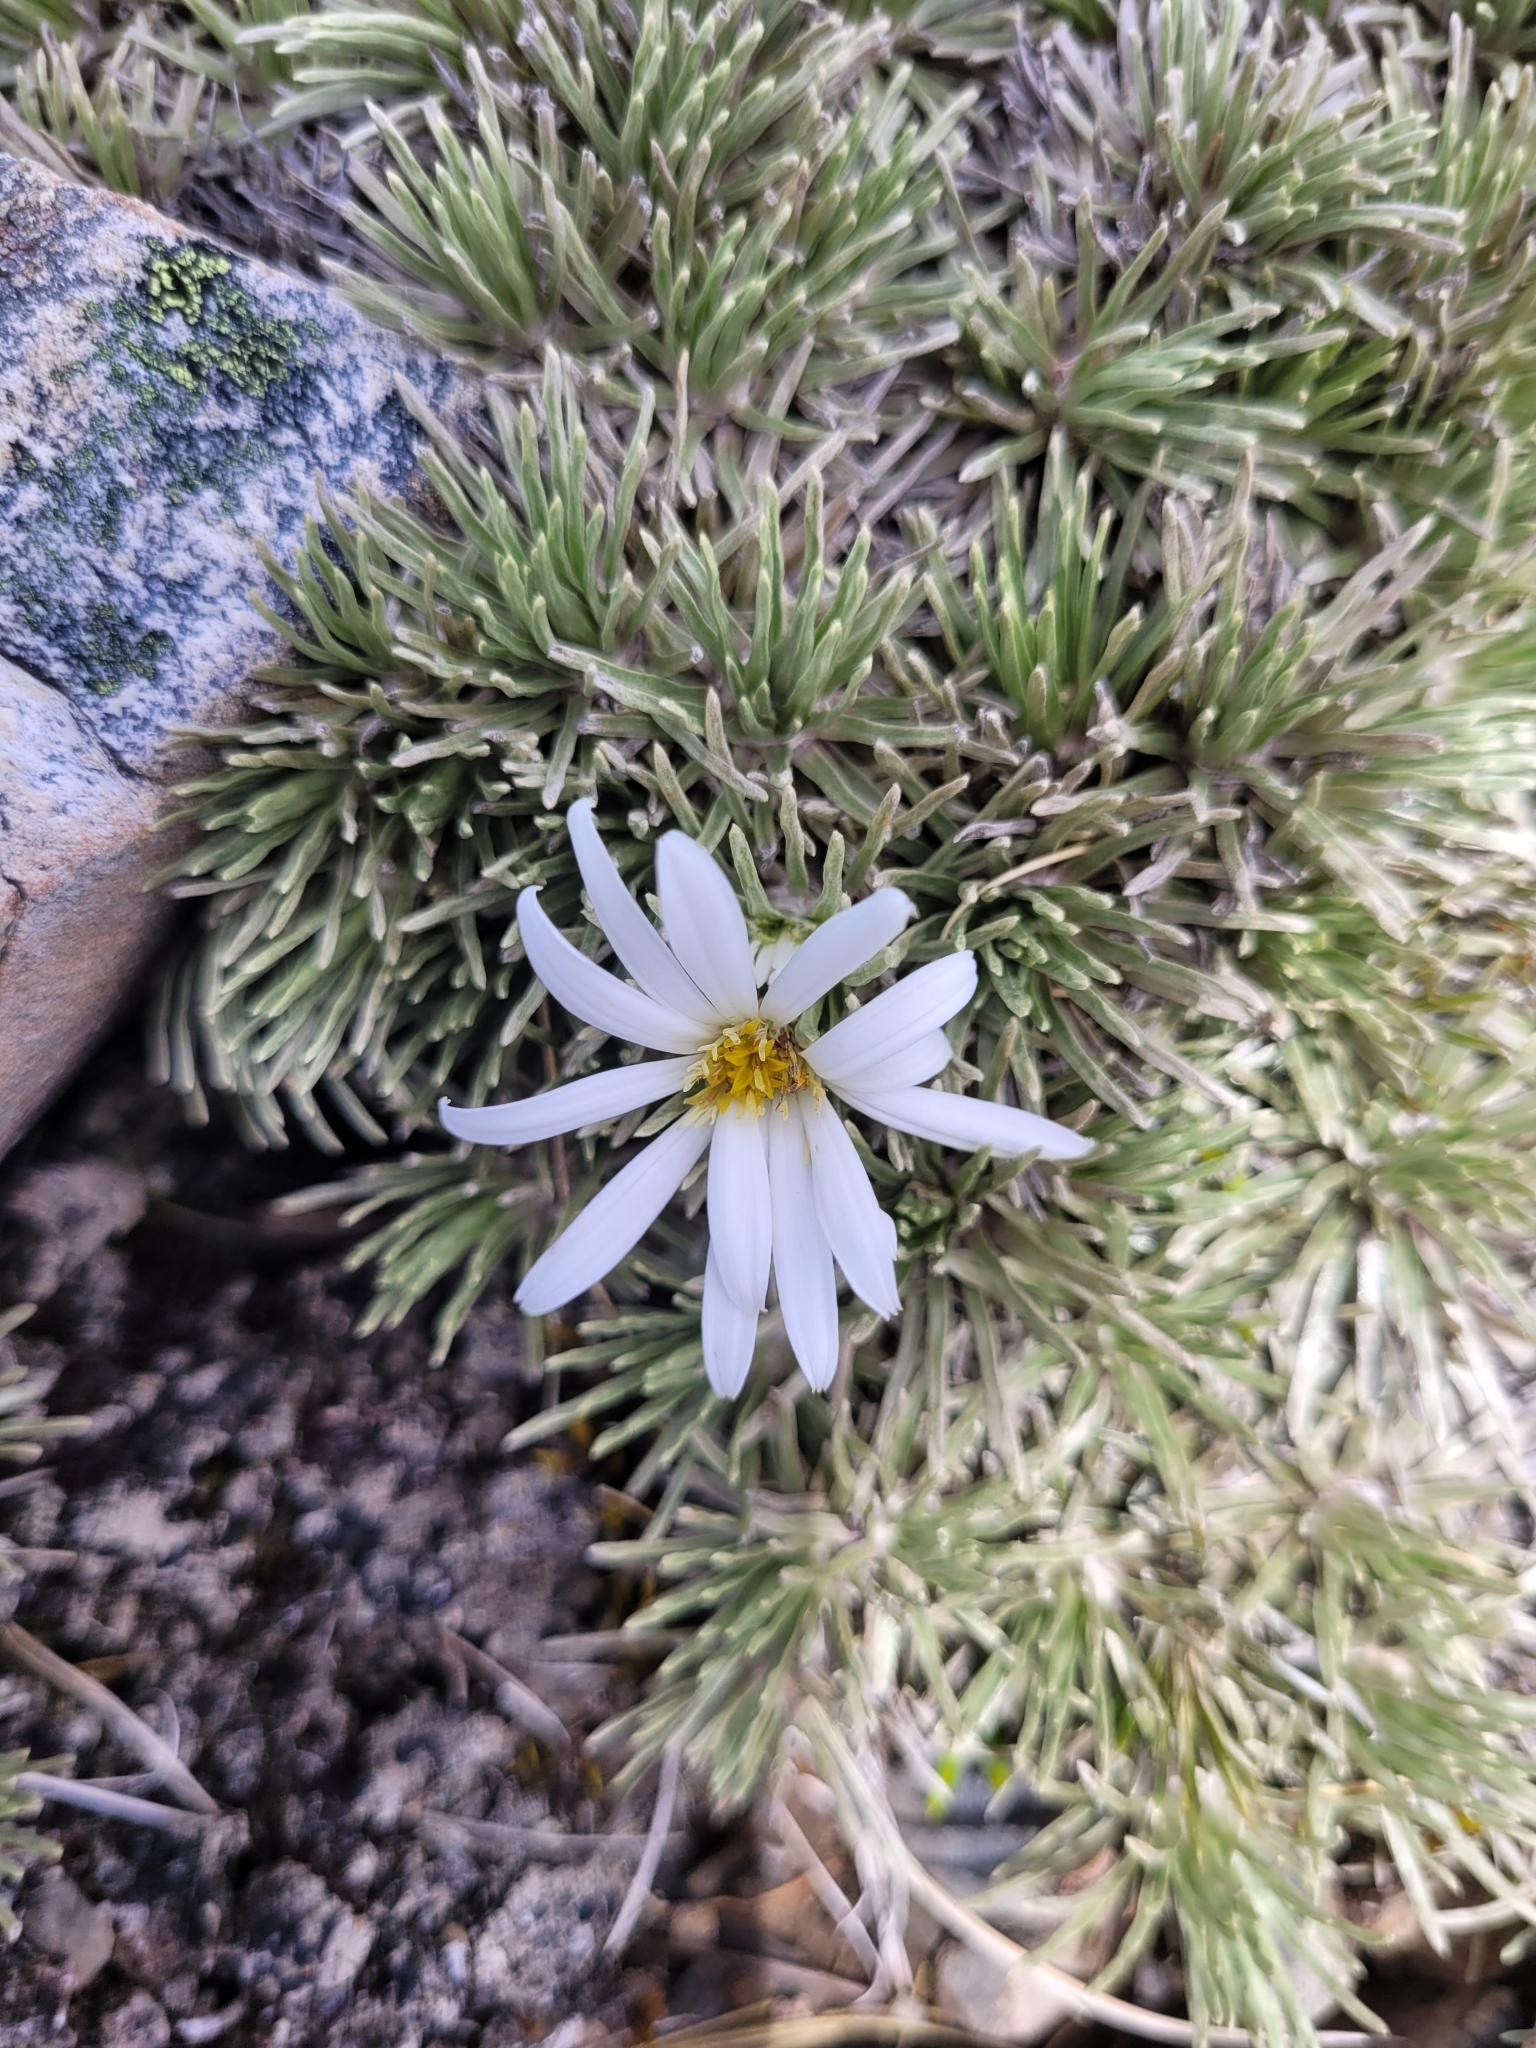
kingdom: Plantae
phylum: Tracheophyta
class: Magnoliopsida
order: Asterales
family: Asteraceae
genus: Celmisia
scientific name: Celmisia sessiliflora
